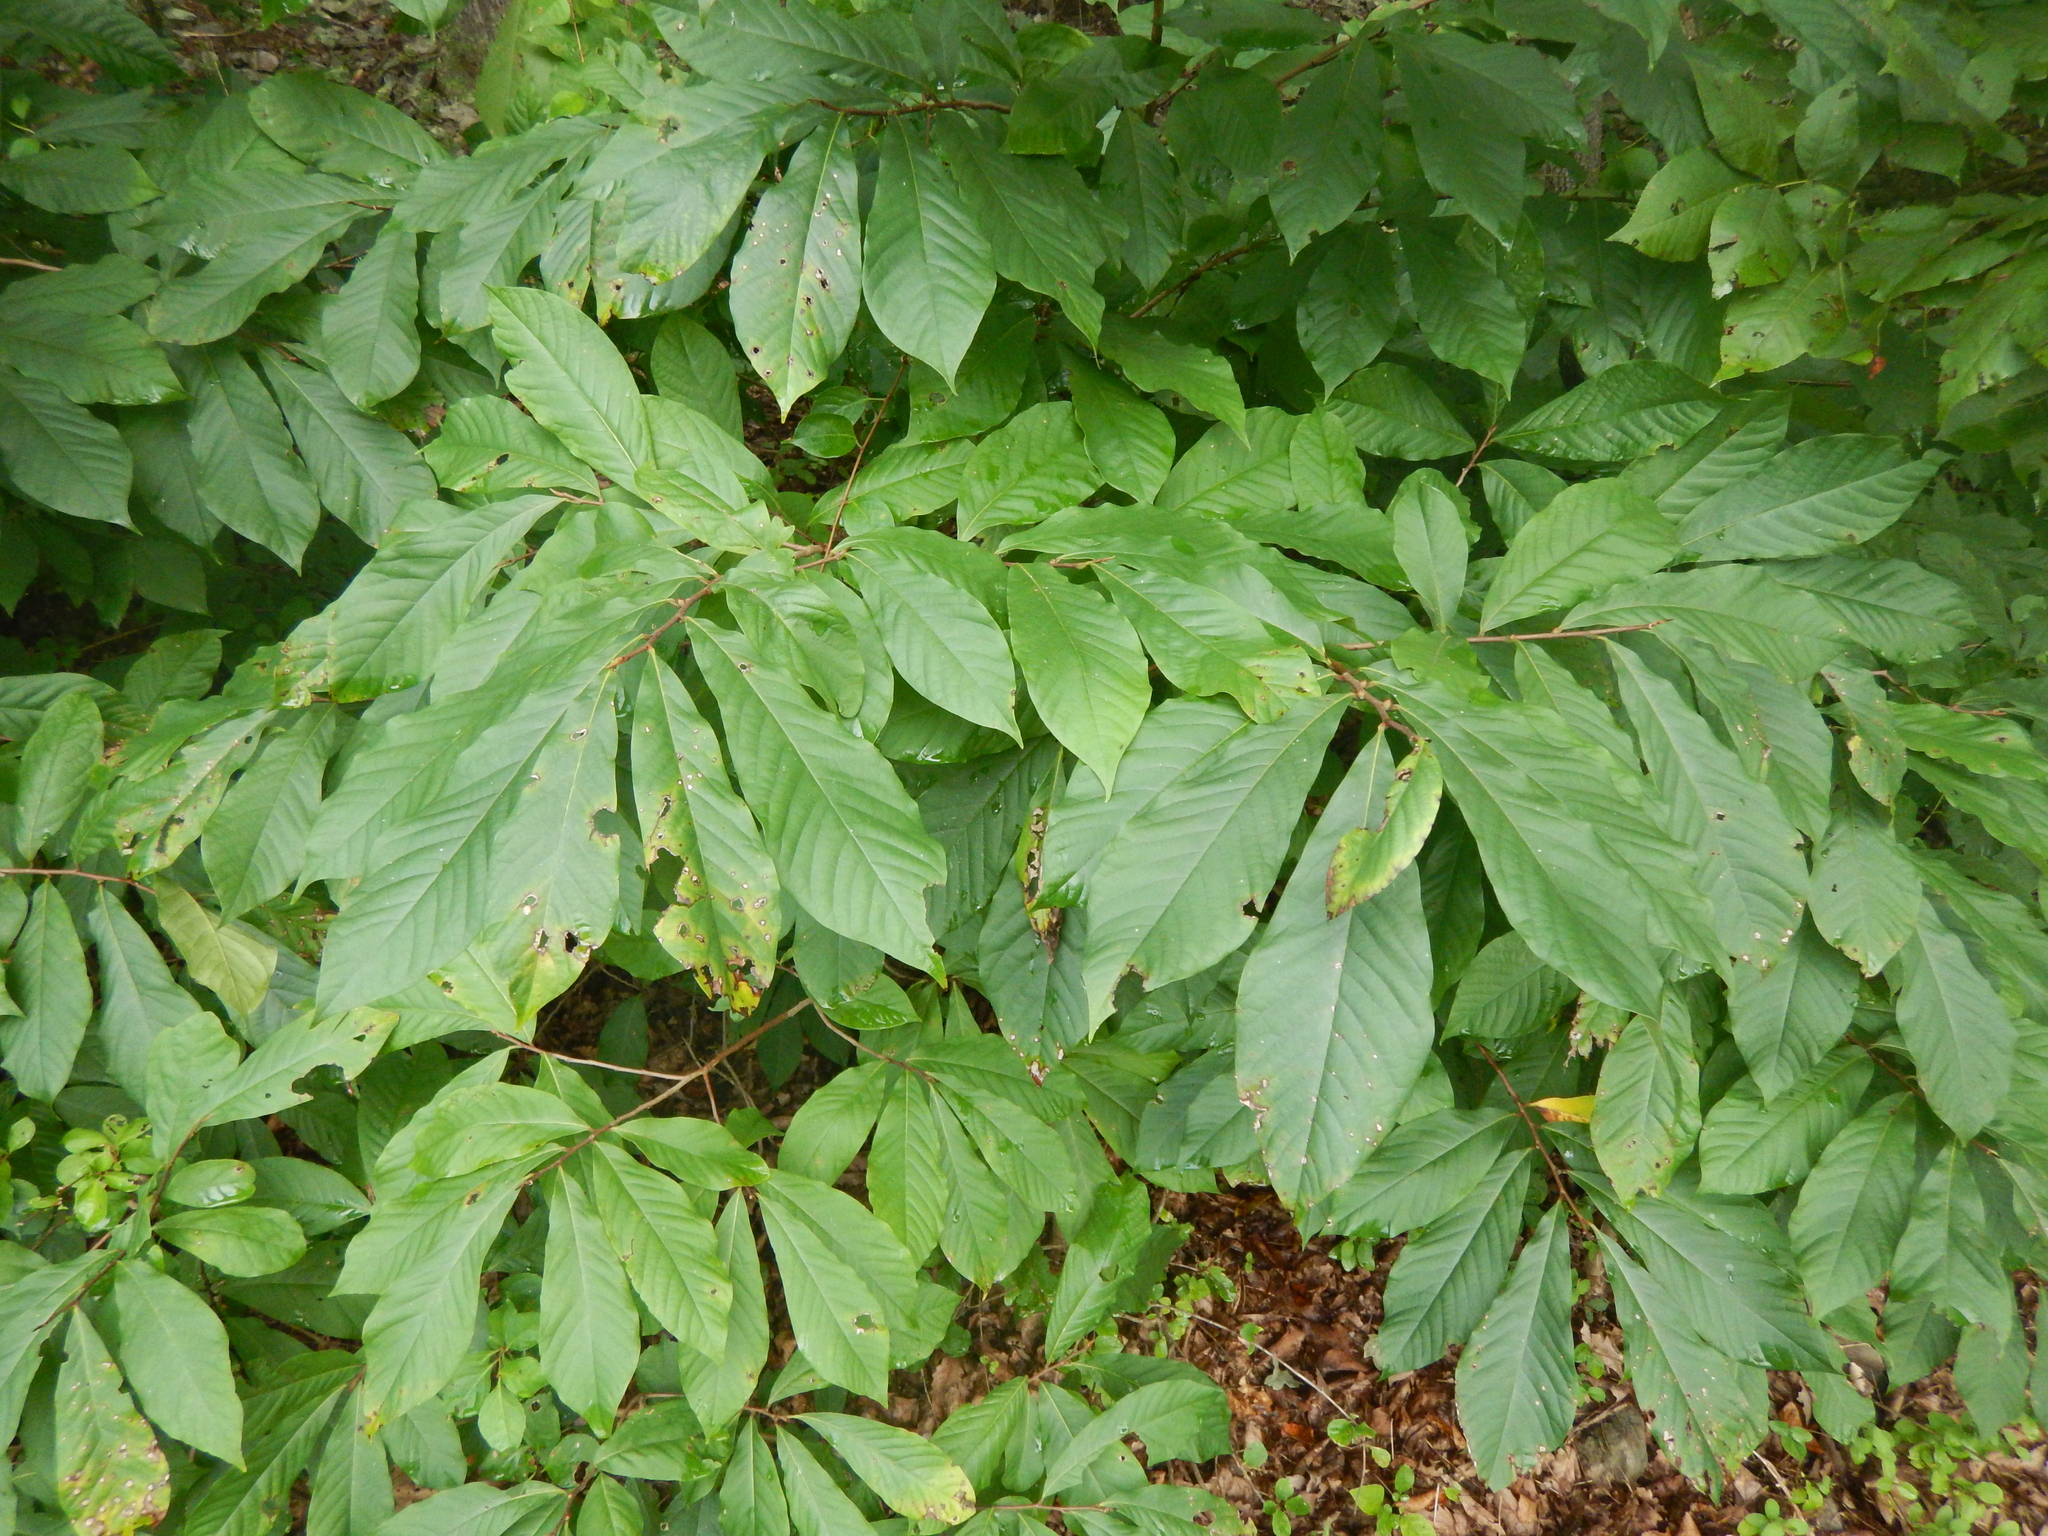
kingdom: Plantae
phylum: Tracheophyta
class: Magnoliopsida
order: Magnoliales
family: Annonaceae
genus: Asimina
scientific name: Asimina triloba
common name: Dog-banana
